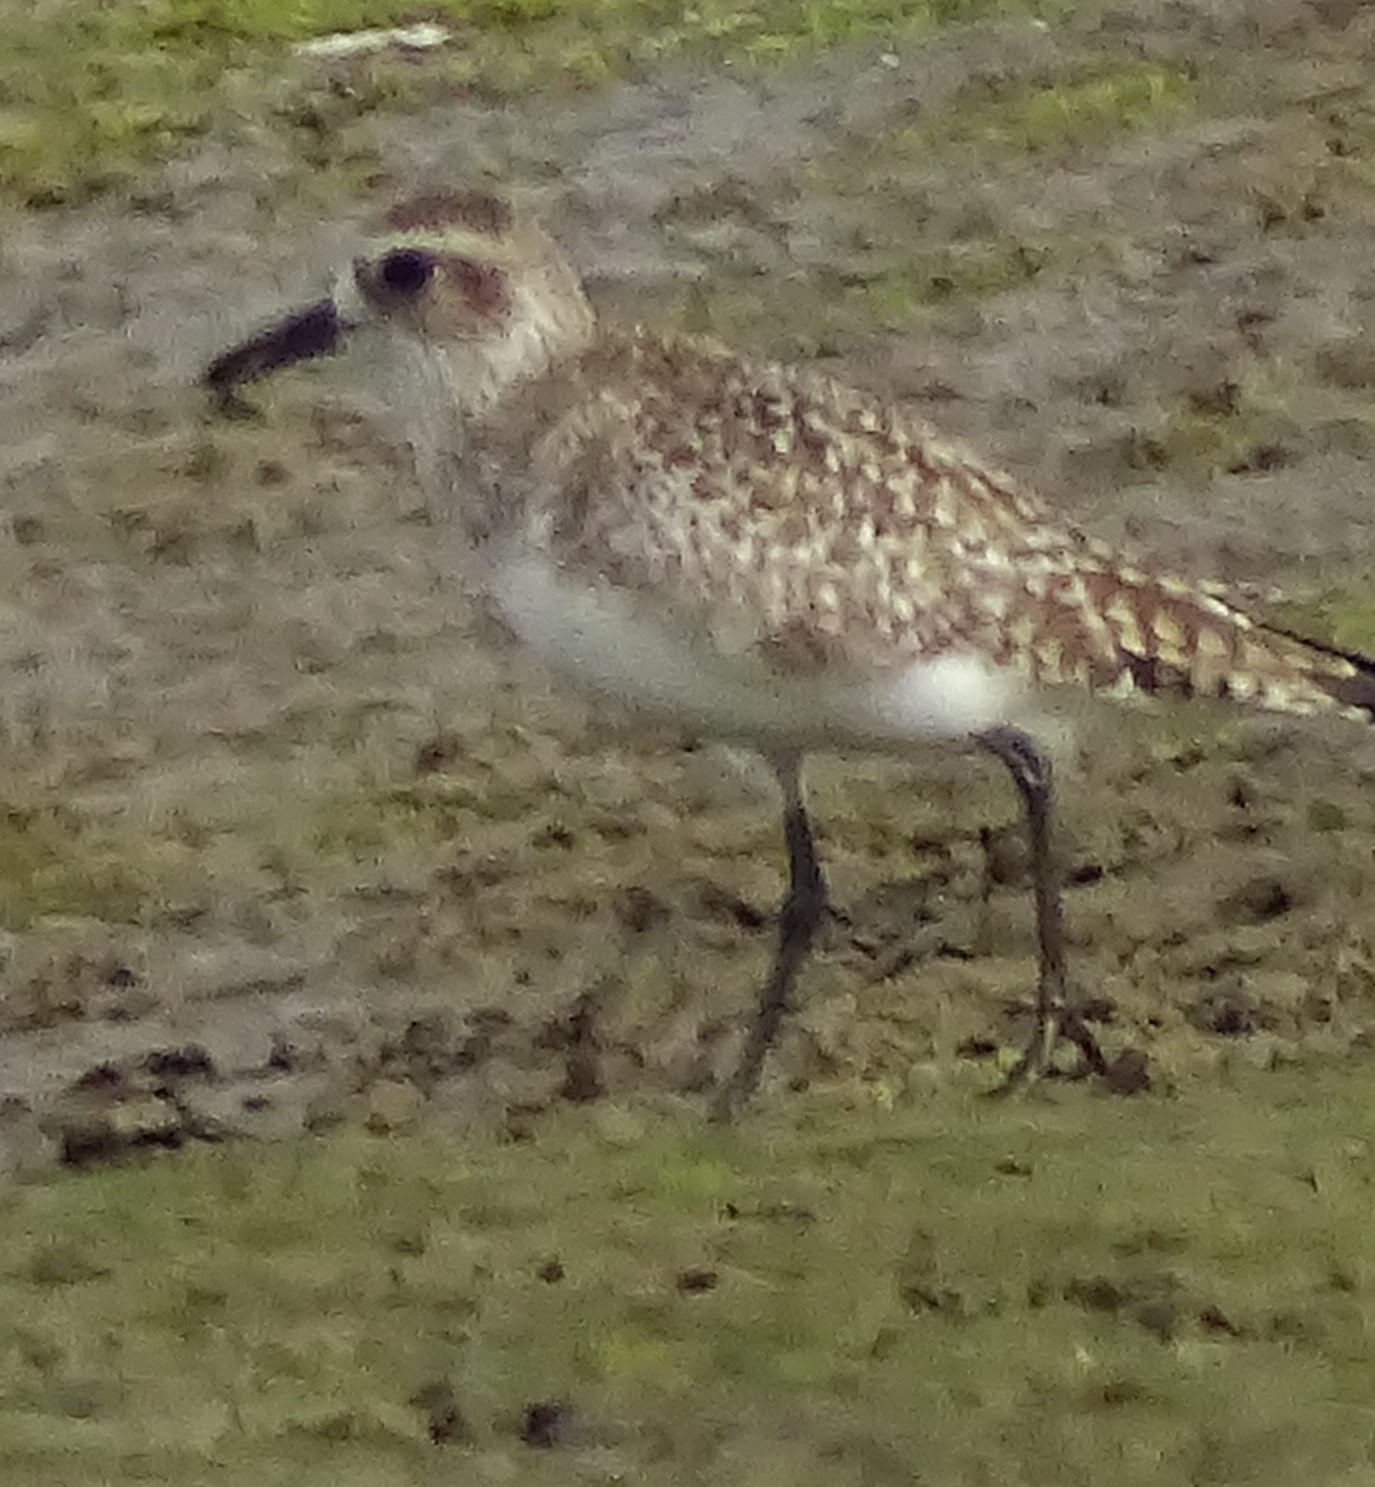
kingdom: Animalia
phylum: Chordata
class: Aves
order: Charadriiformes
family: Charadriidae
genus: Pluvialis
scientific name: Pluvialis squatarola
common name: Grey plover
